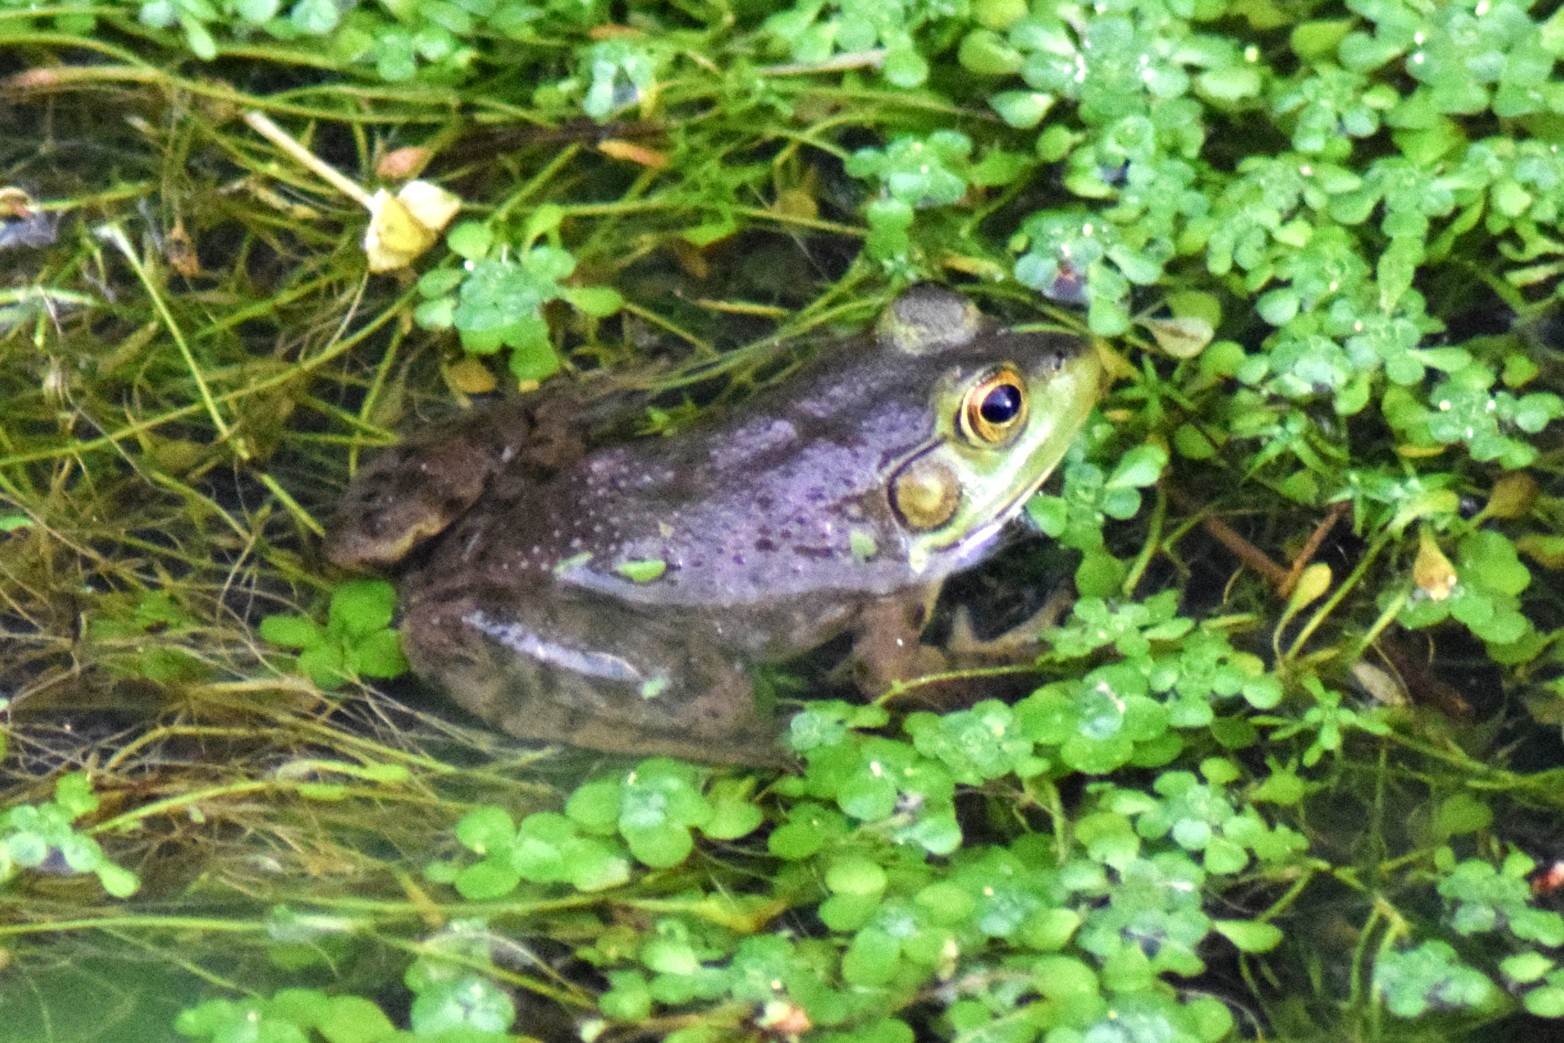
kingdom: Animalia
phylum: Chordata
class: Amphibia
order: Anura
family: Ranidae
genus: Lithobates
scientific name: Lithobates catesbeianus
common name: American bullfrog
